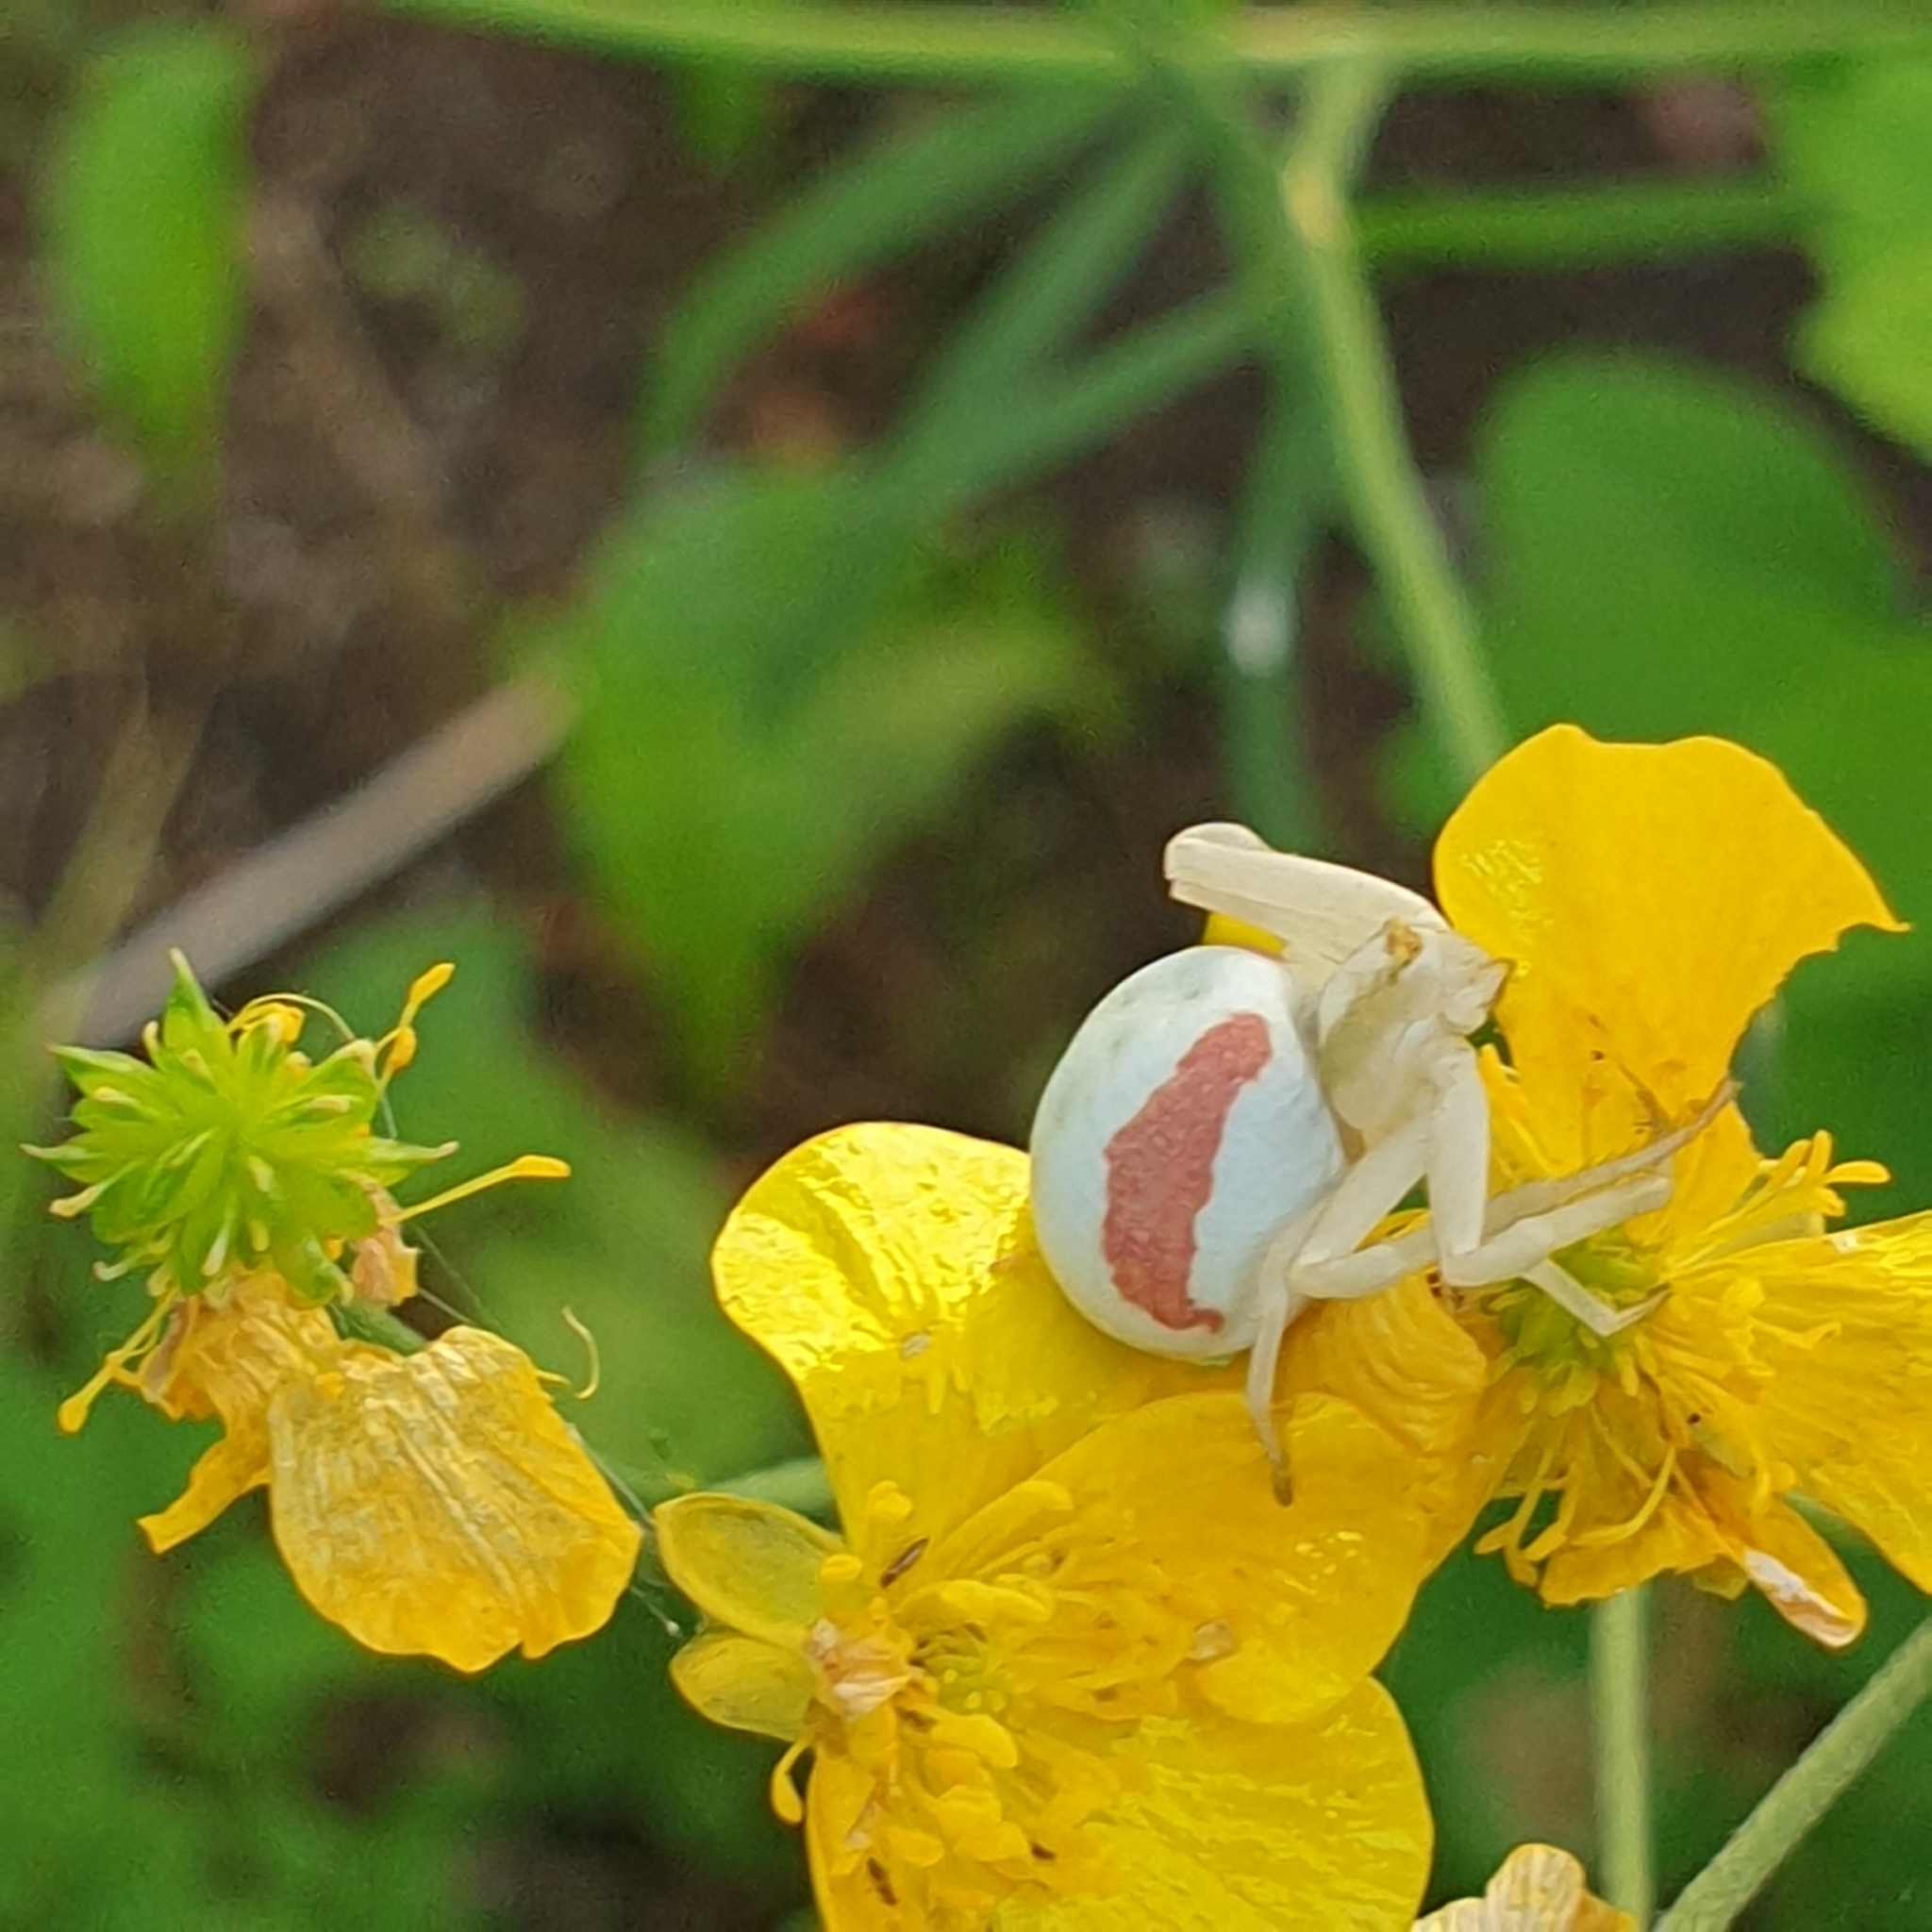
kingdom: Animalia
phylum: Arthropoda
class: Arachnida
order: Araneae
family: Thomisidae
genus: Misumena
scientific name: Misumena vatia
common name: Goldenrod crab spider
